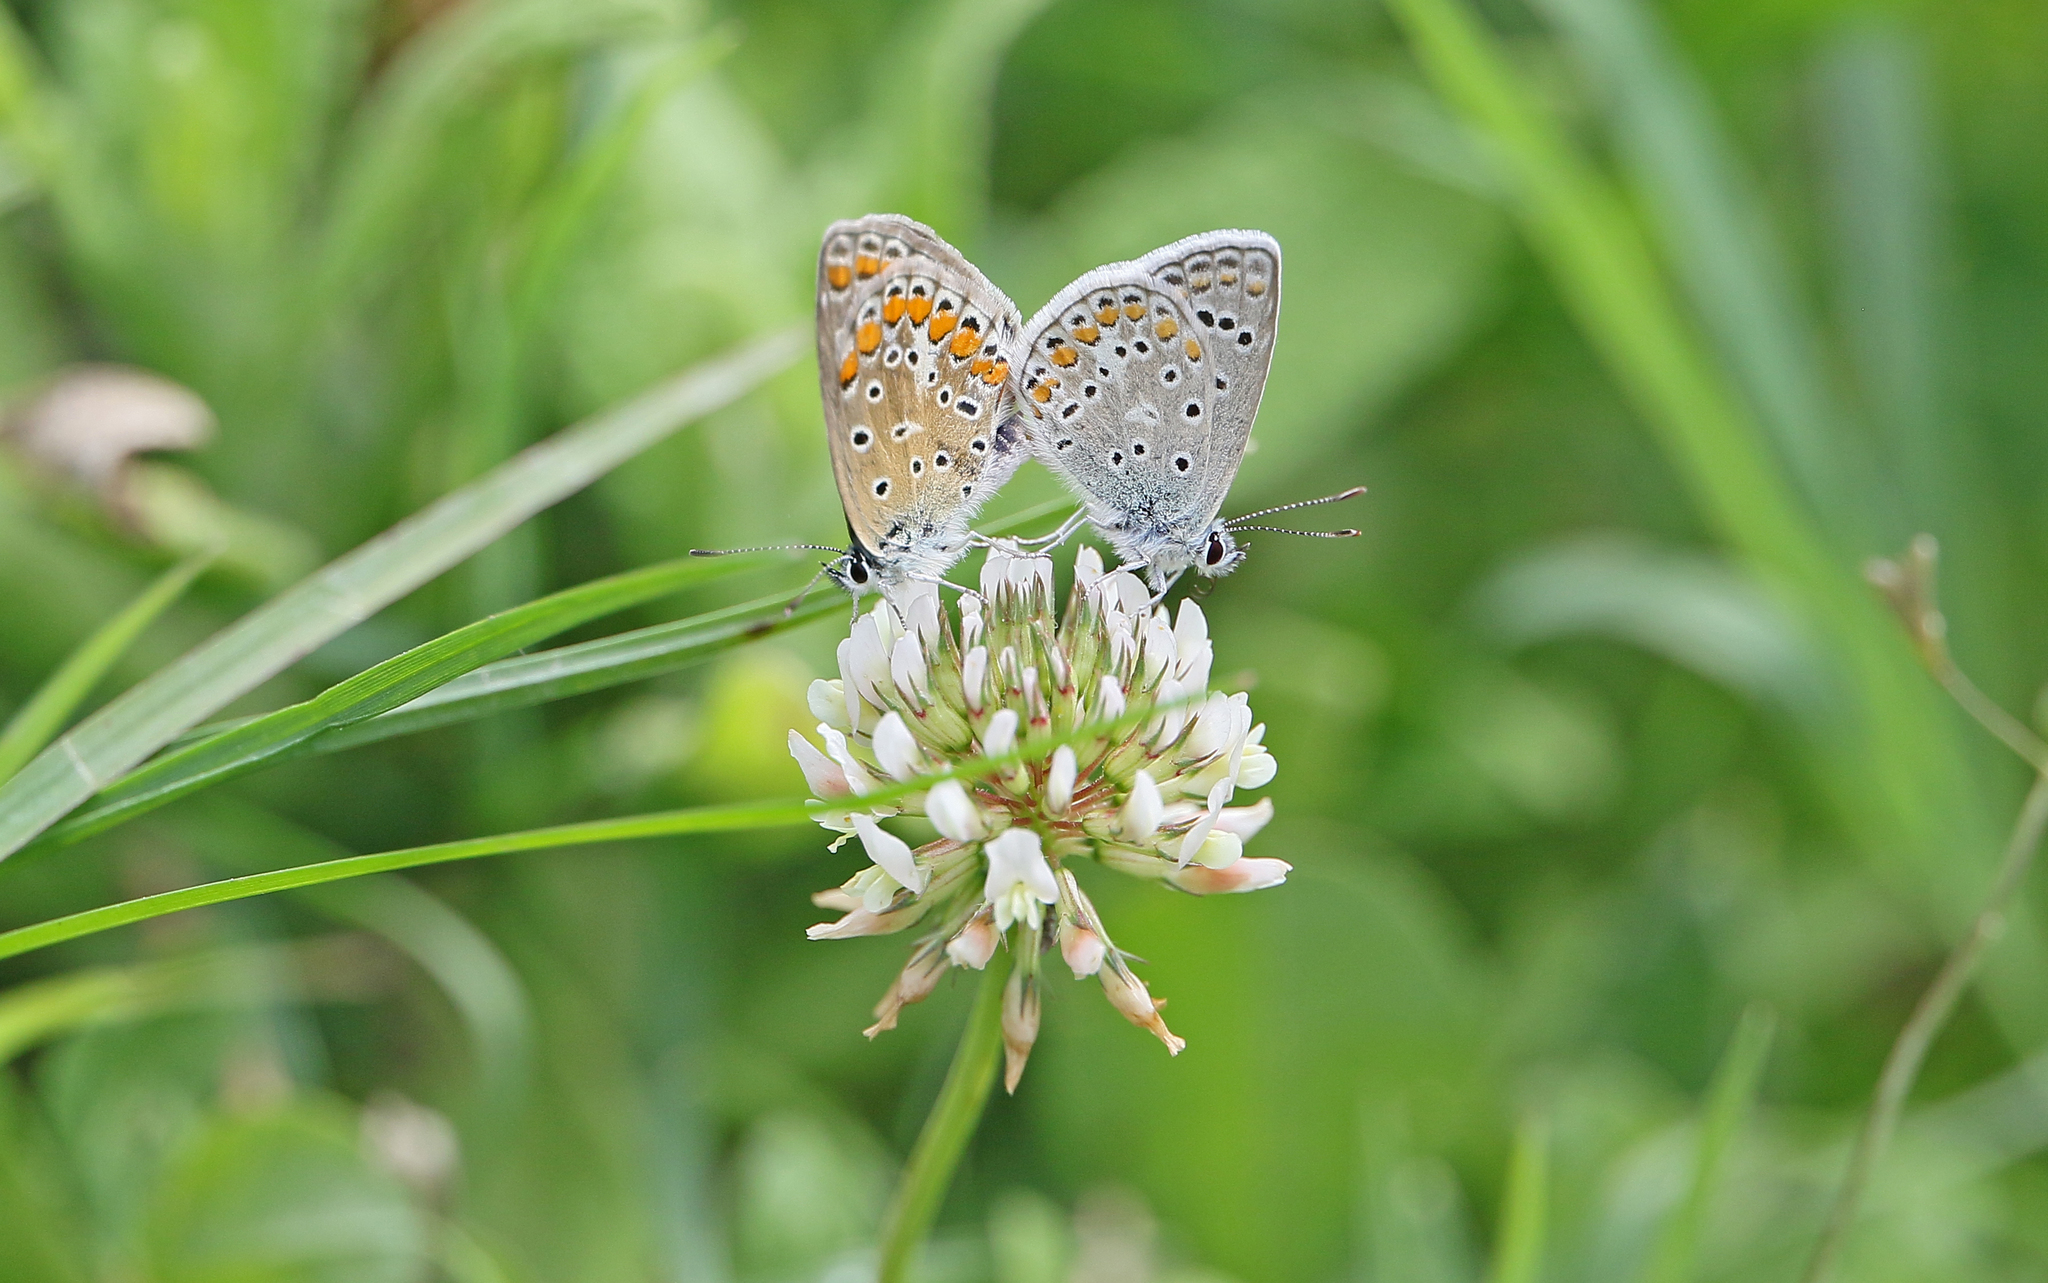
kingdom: Animalia
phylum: Arthropoda
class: Insecta
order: Lepidoptera
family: Lycaenidae
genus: Polyommatus
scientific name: Polyommatus celina
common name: Austaut's blue
